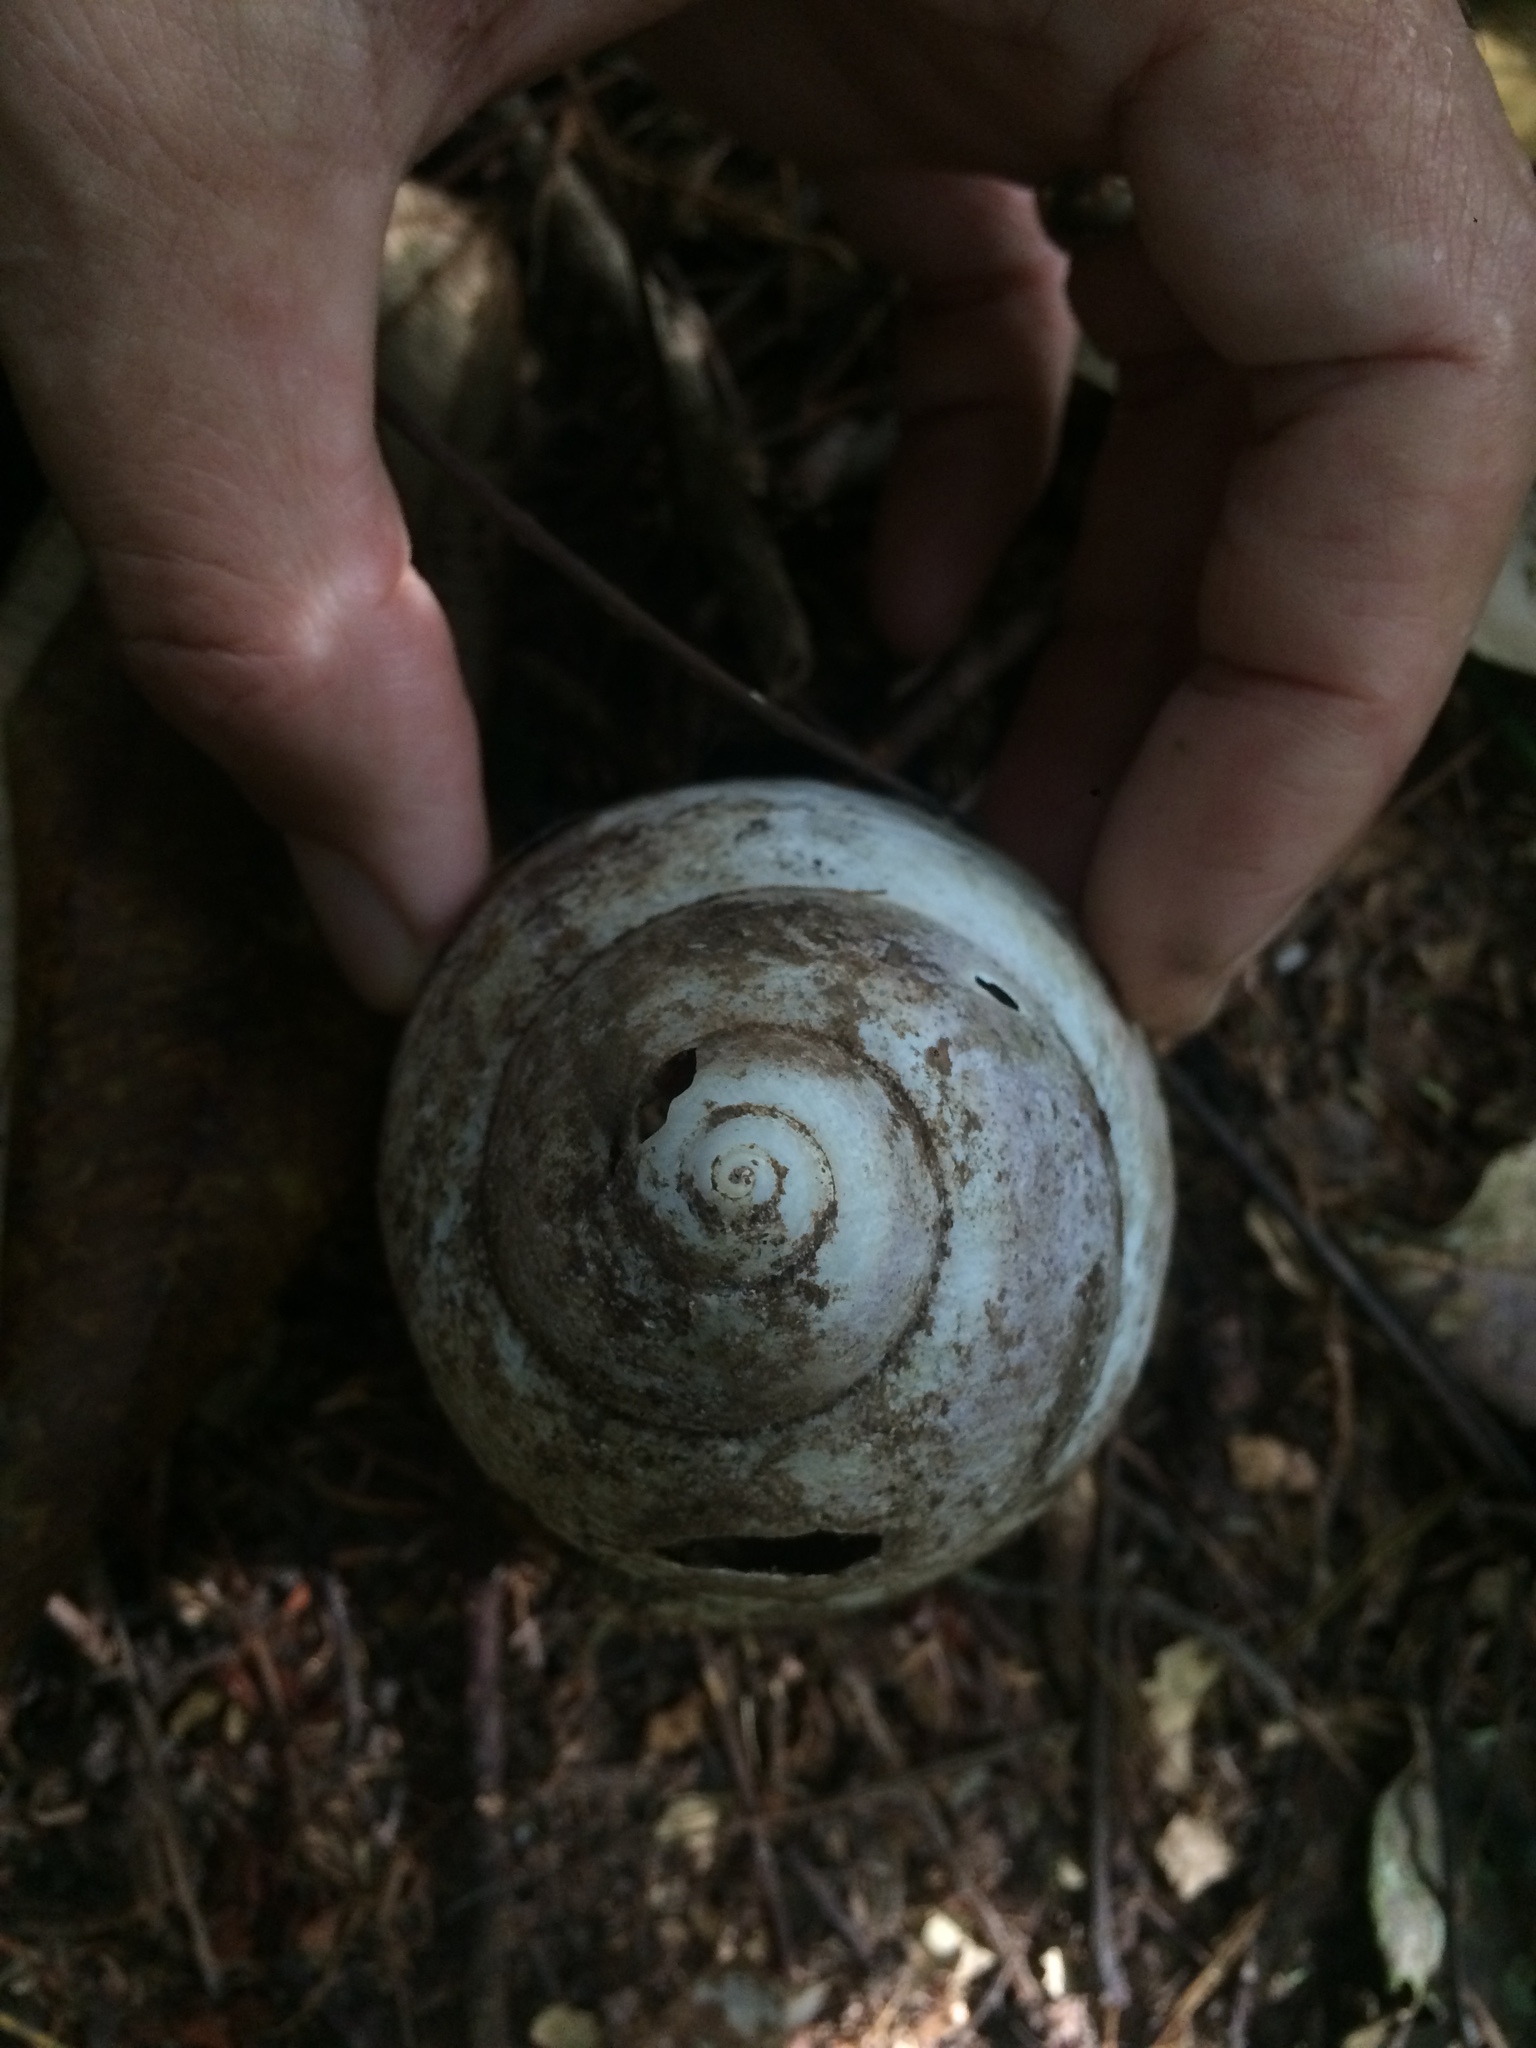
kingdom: Animalia
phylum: Mollusca
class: Gastropoda
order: Stylommatophora
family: Strophocheilidae
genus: Megalobulimus
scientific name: Megalobulimus terrestris
